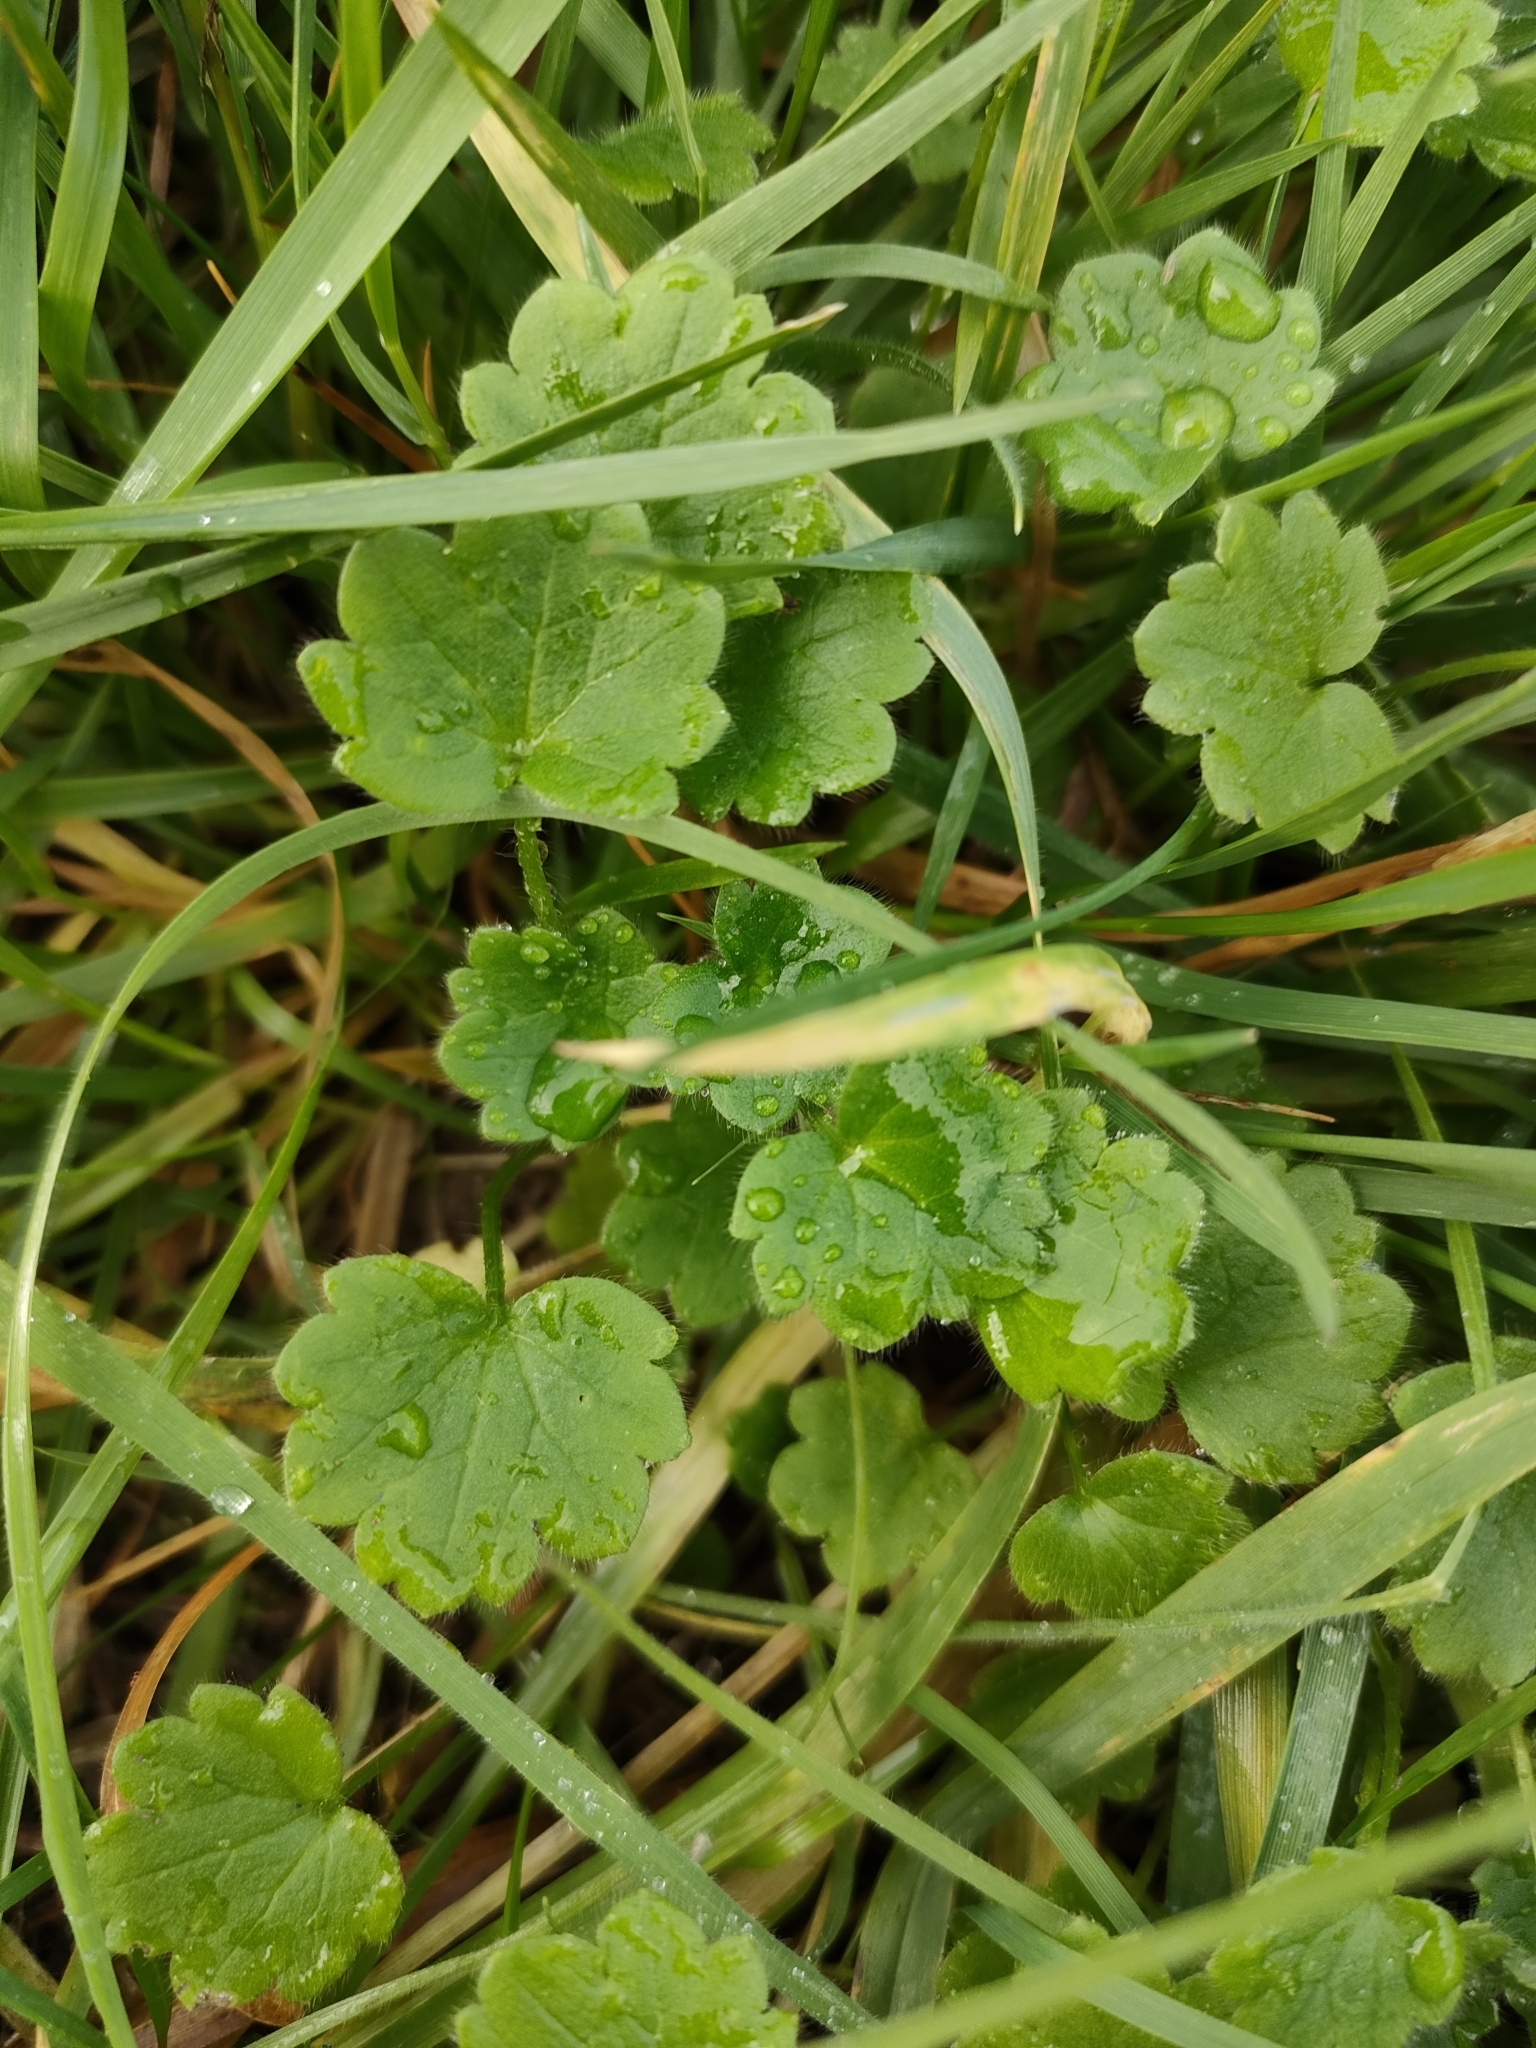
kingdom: Plantae
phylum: Tracheophyta
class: Magnoliopsida
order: Ranunculales
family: Ranunculaceae
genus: Ranunculus
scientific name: Ranunculus parviflorus
